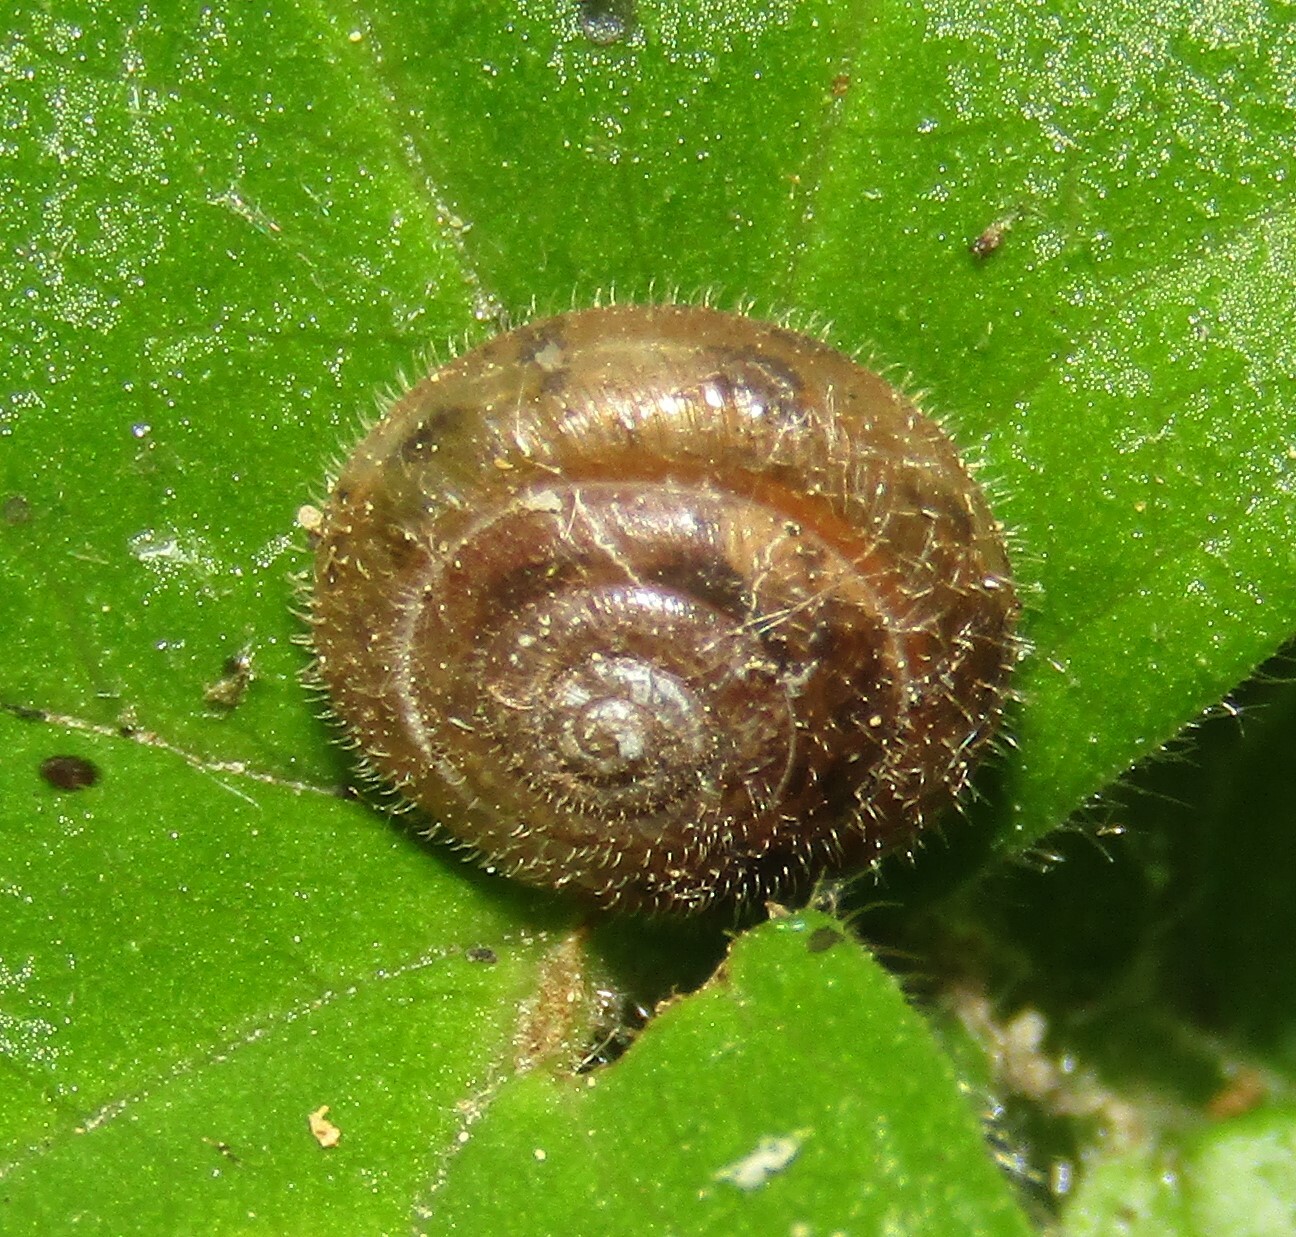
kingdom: Animalia
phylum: Mollusca
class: Gastropoda
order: Stylommatophora
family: Hygromiidae
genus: Trochulus
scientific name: Trochulus hispidus
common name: Hairy snail
